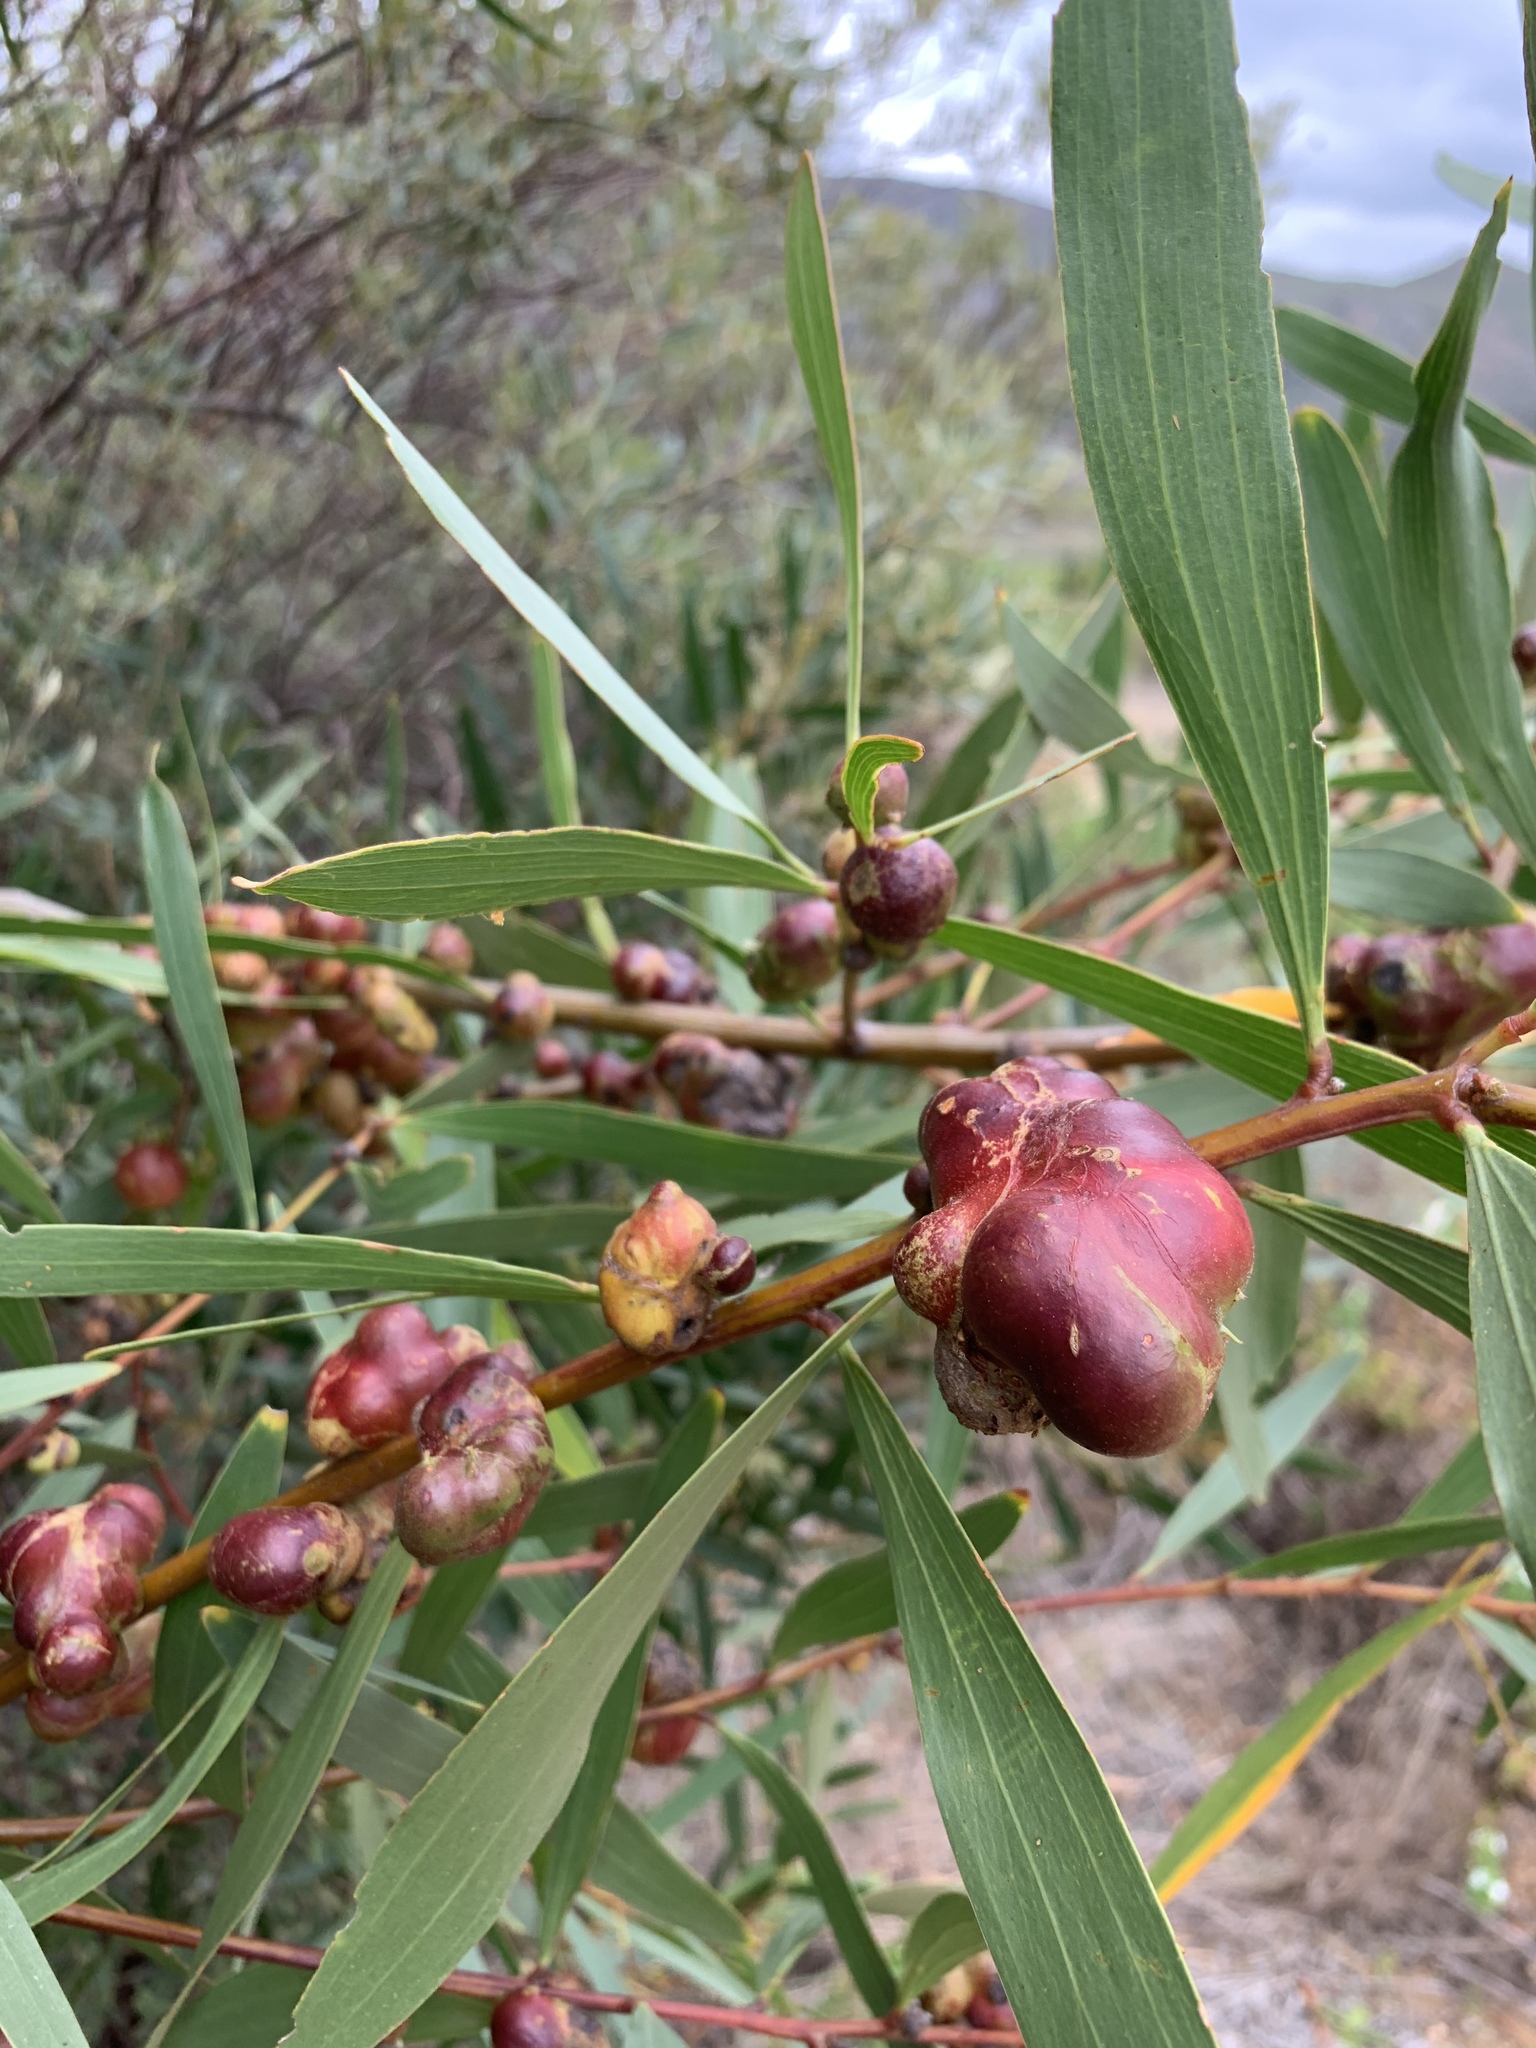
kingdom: Animalia
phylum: Arthropoda
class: Insecta
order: Hymenoptera
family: Pteromalidae
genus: Trichilogaster
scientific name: Trichilogaster acaciaelongifoliae
